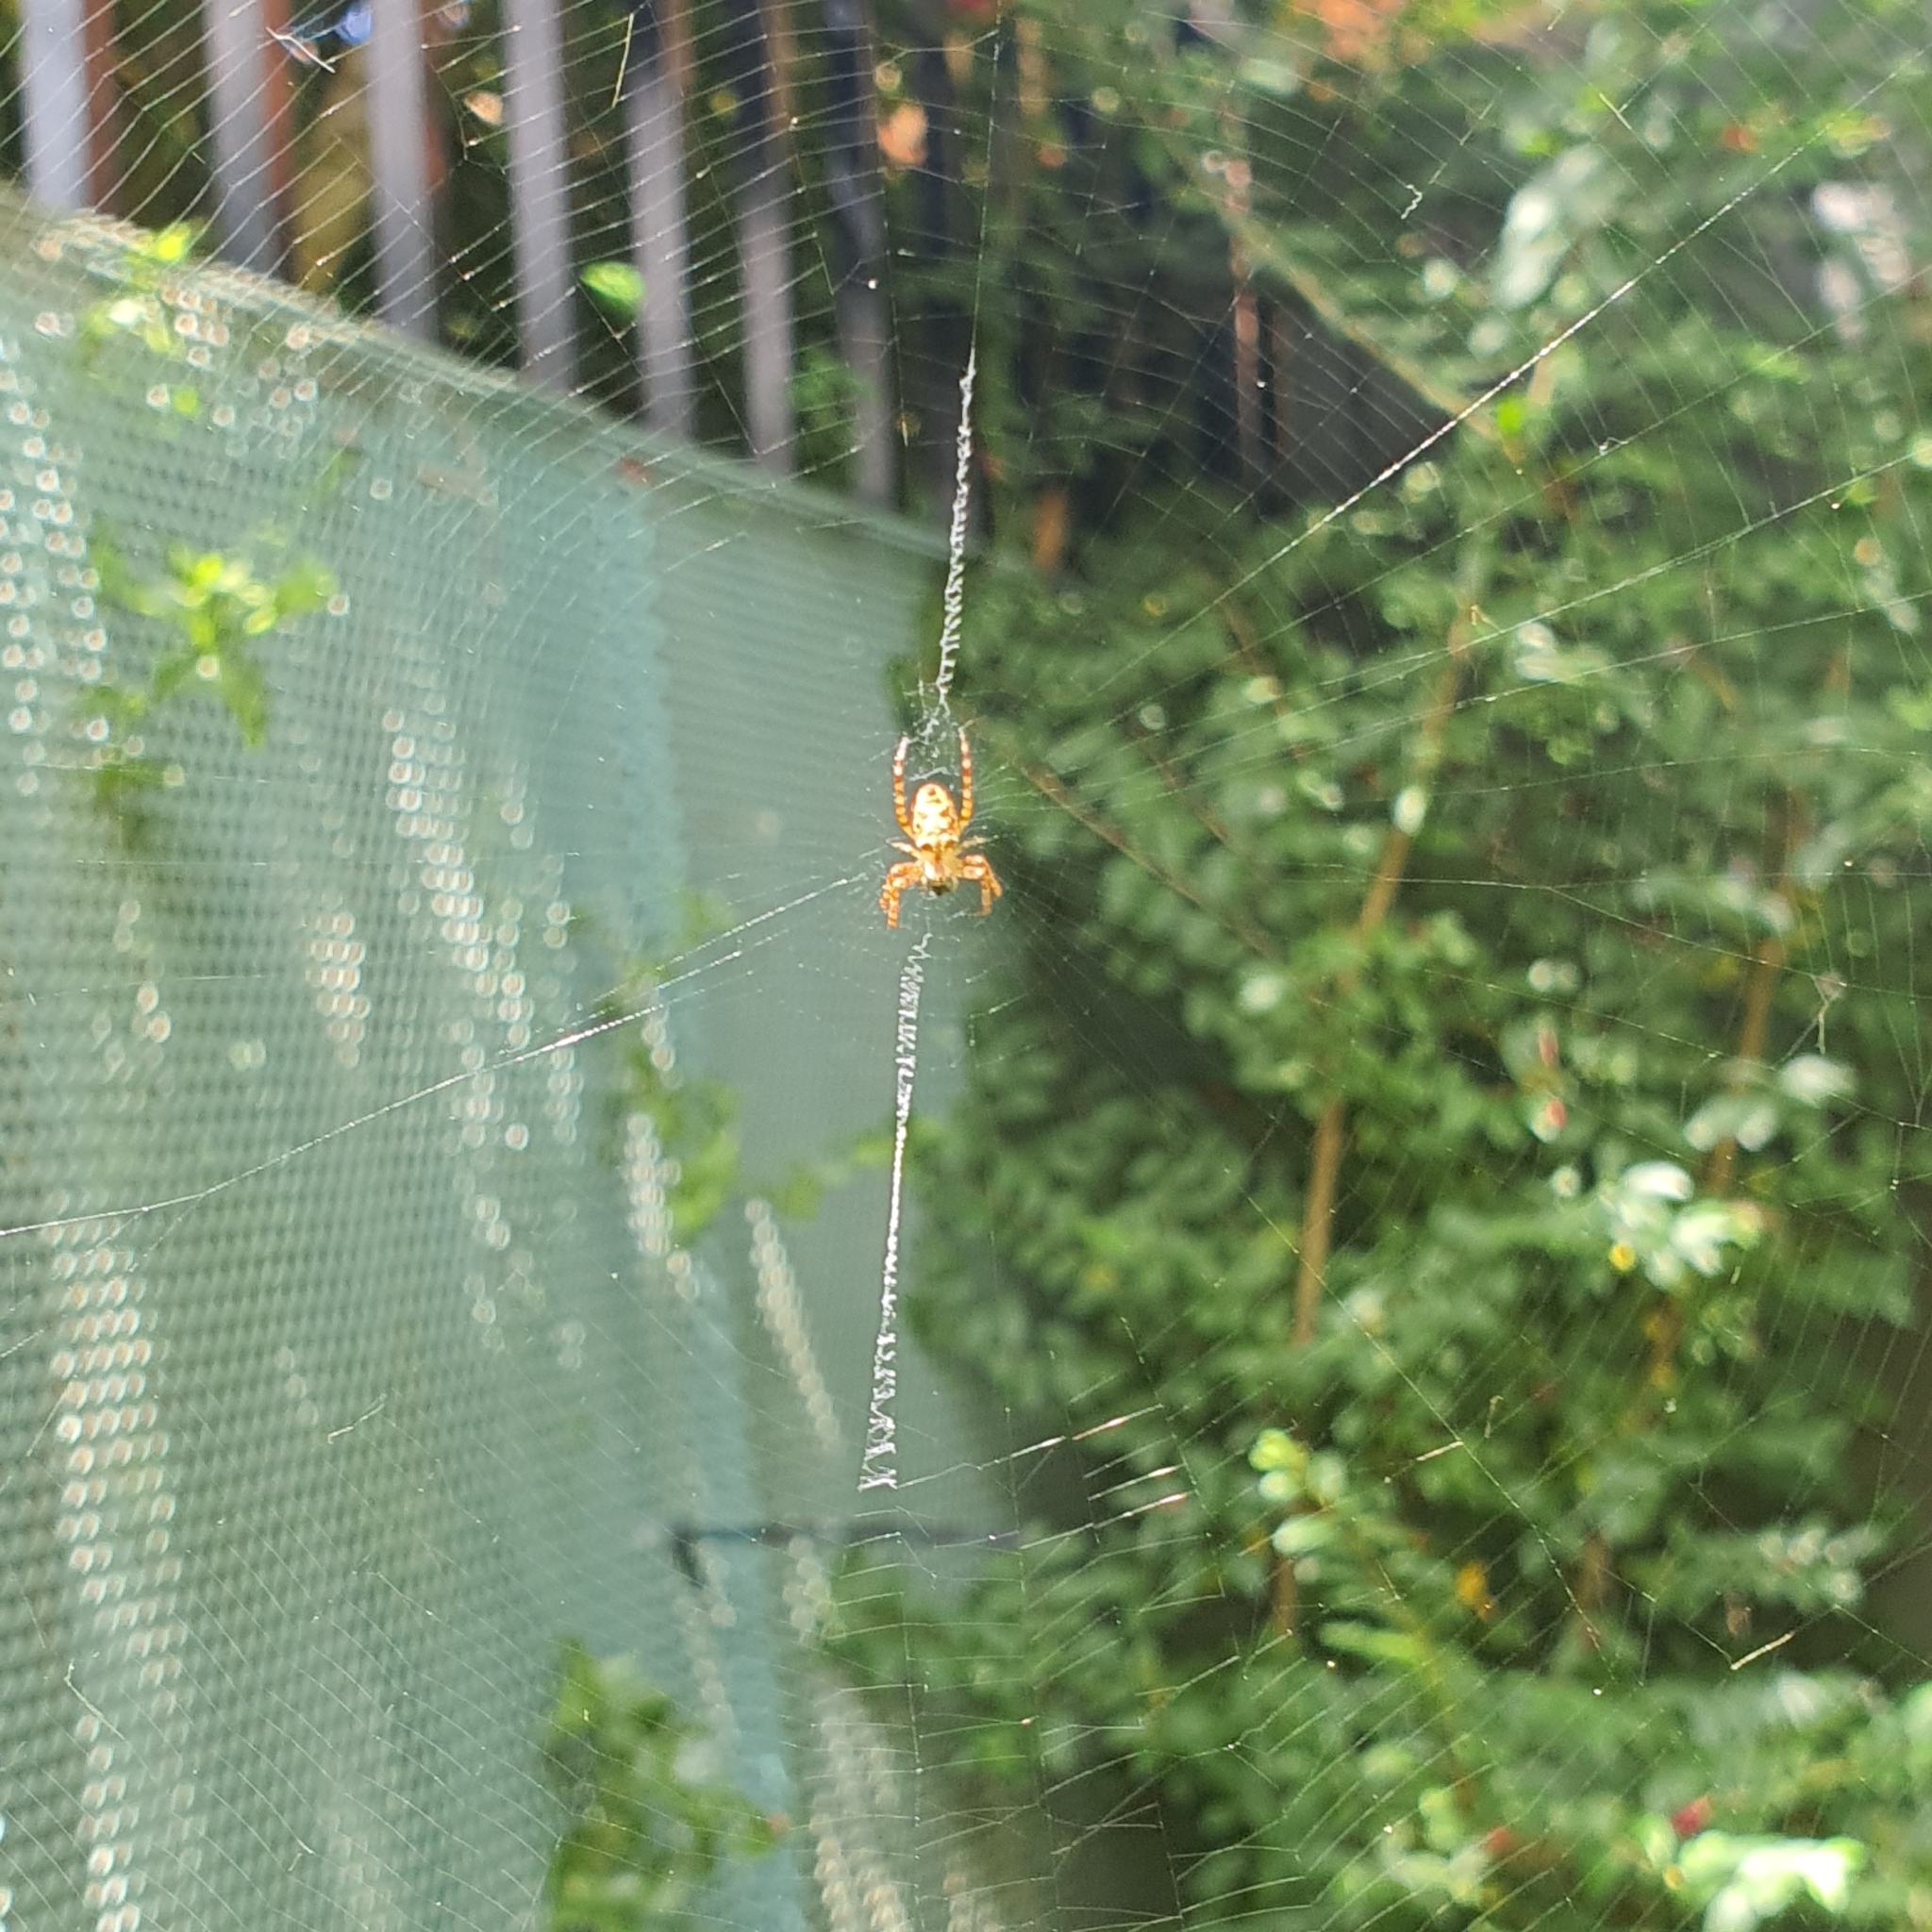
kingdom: Animalia
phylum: Arthropoda
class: Arachnida
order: Araneae
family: Araneidae
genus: Plebs
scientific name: Plebs eburnus
